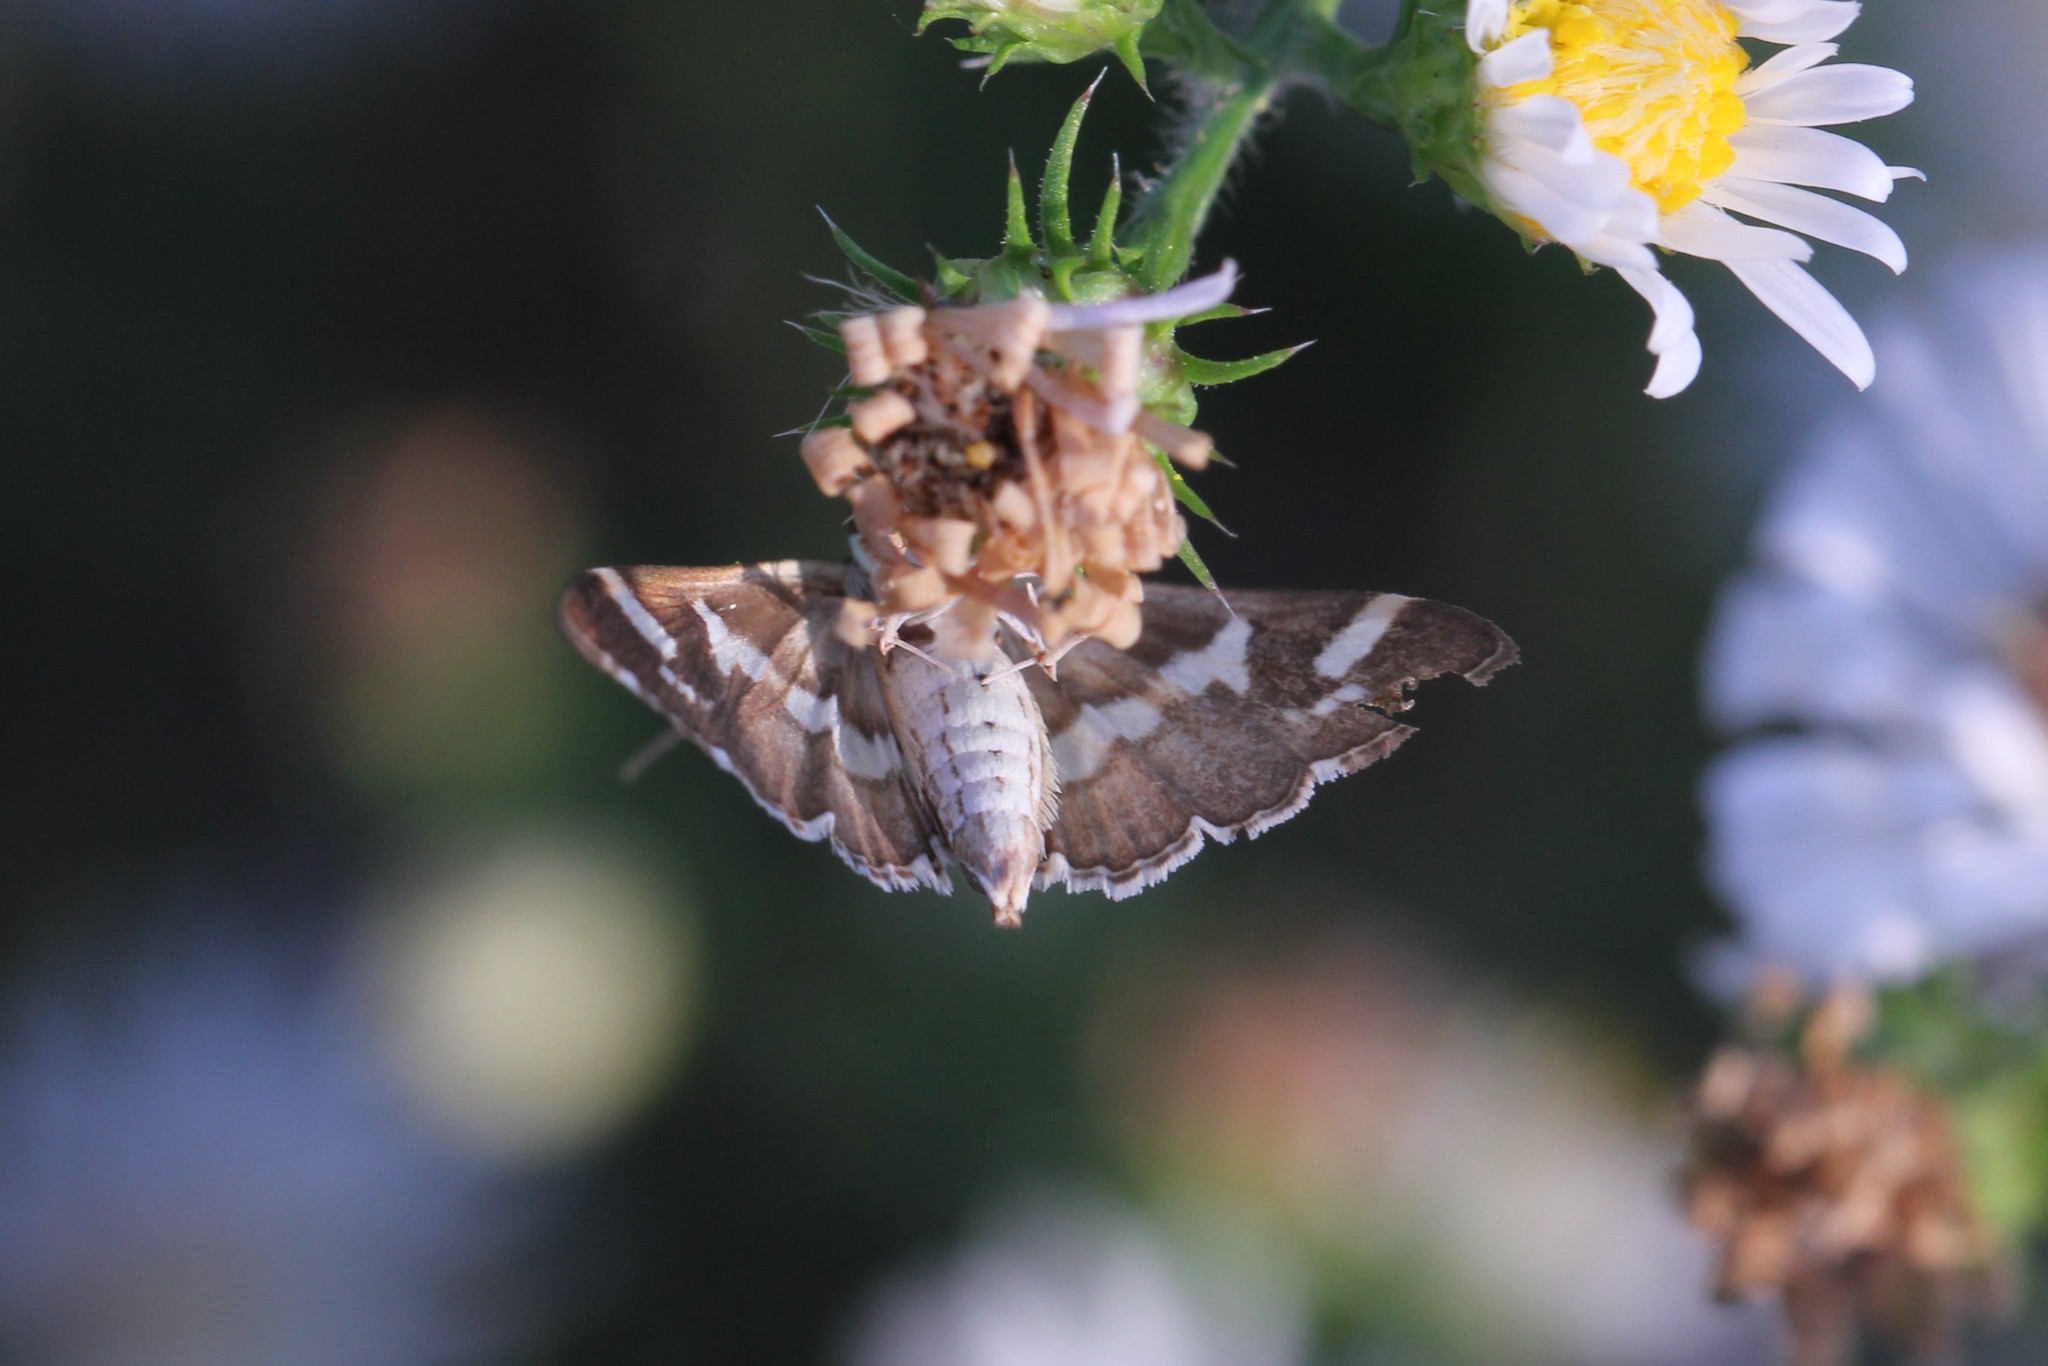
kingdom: Animalia
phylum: Arthropoda
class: Insecta
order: Lepidoptera
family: Crambidae
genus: Spoladea
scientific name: Spoladea recurvalis
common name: Beet webworm moth
